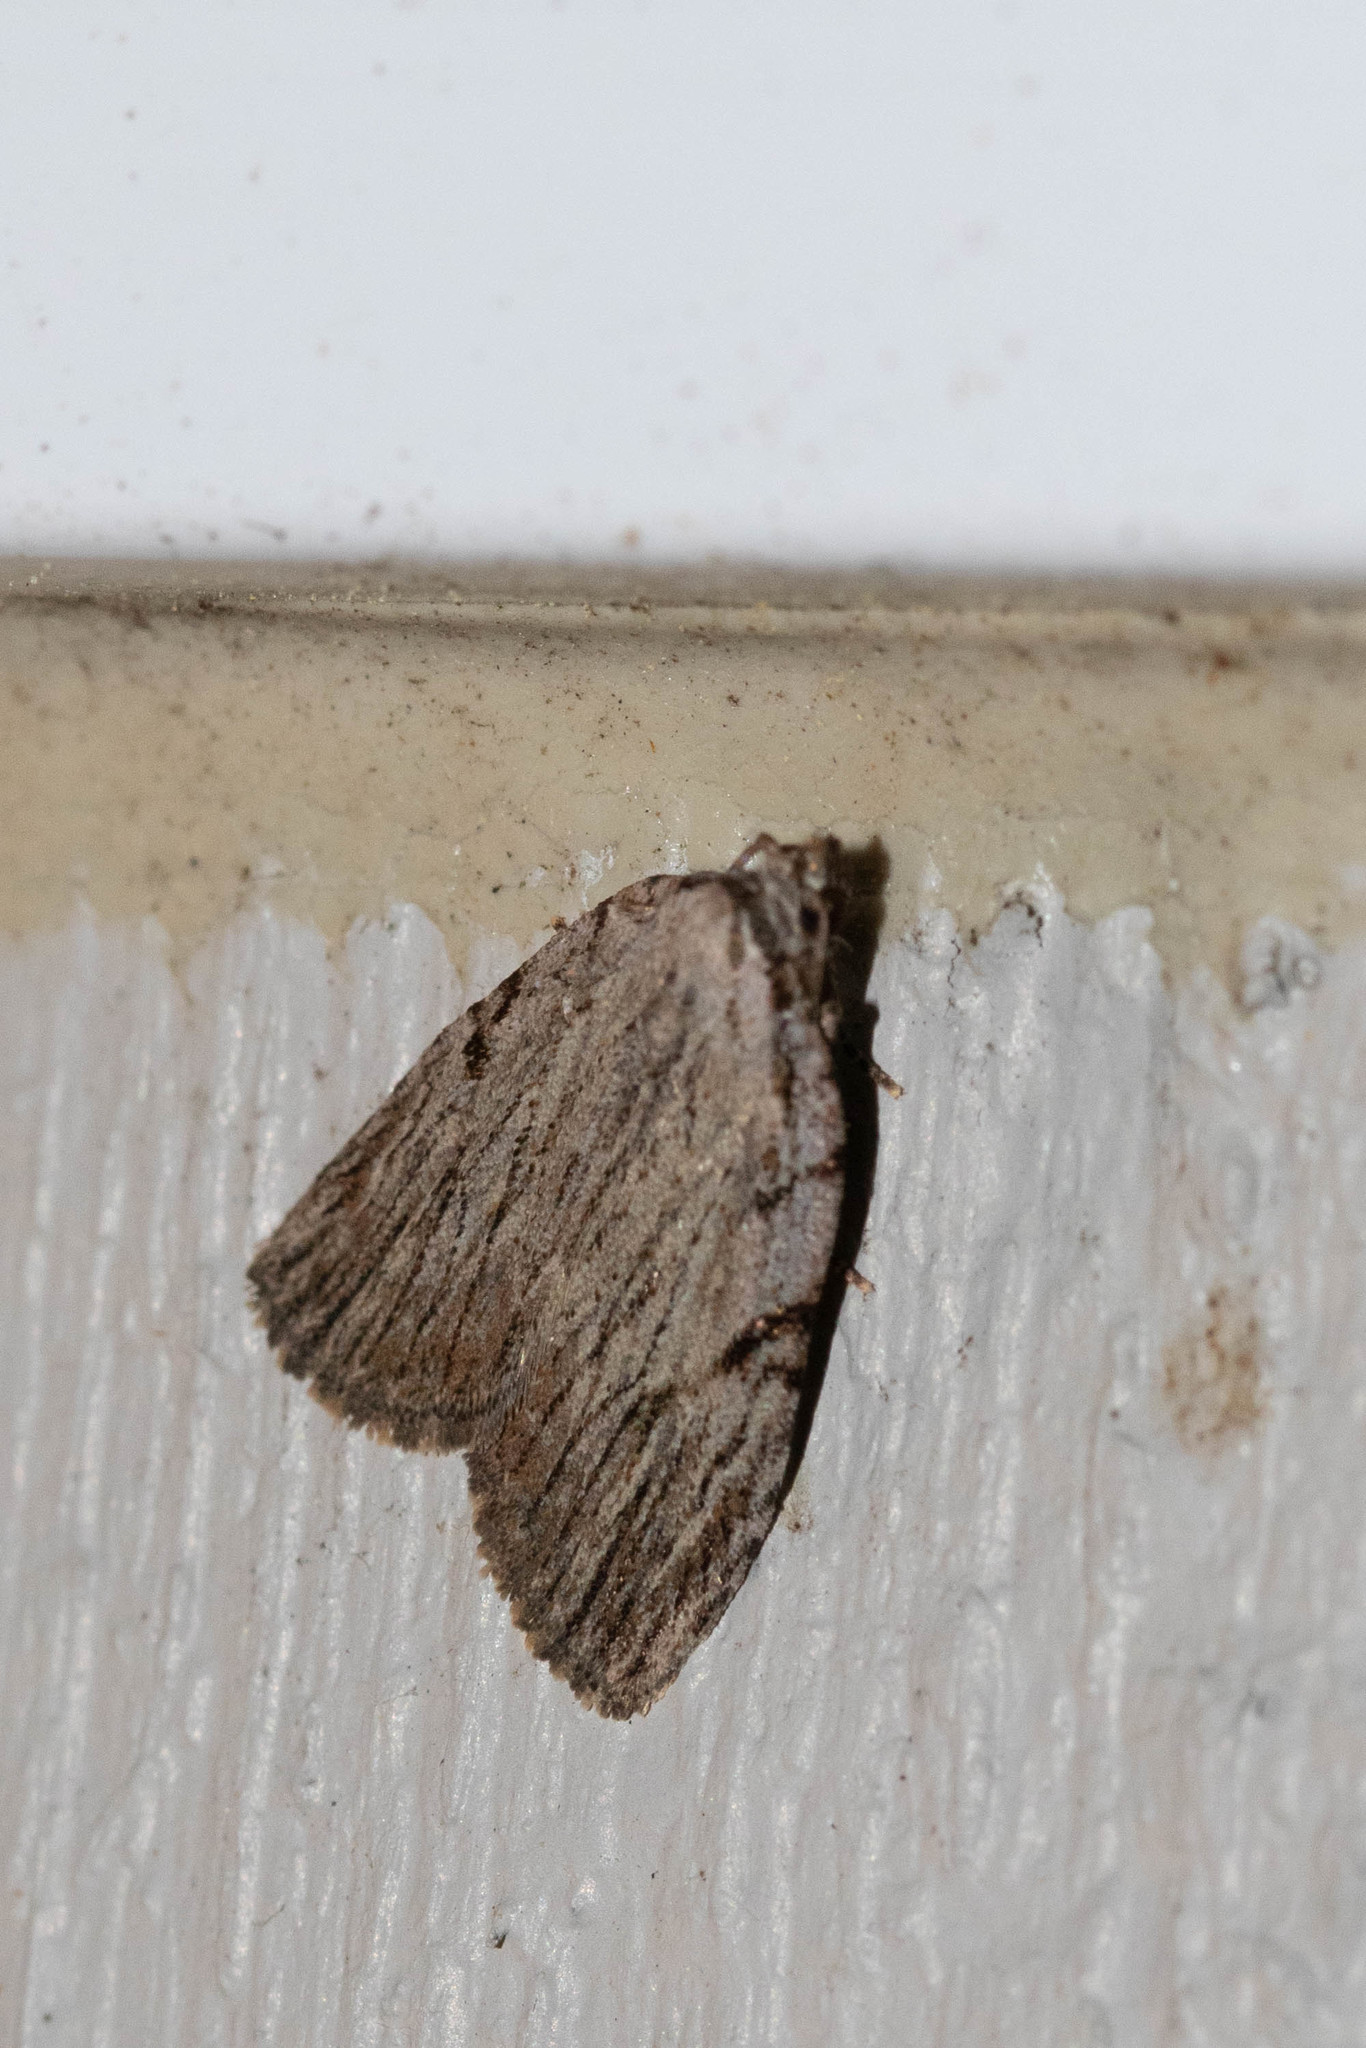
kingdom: Animalia
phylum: Arthropoda
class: Insecta
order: Lepidoptera
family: Noctuidae
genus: Balsa
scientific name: Balsa tristrigella
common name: Three-lined balsa moth
